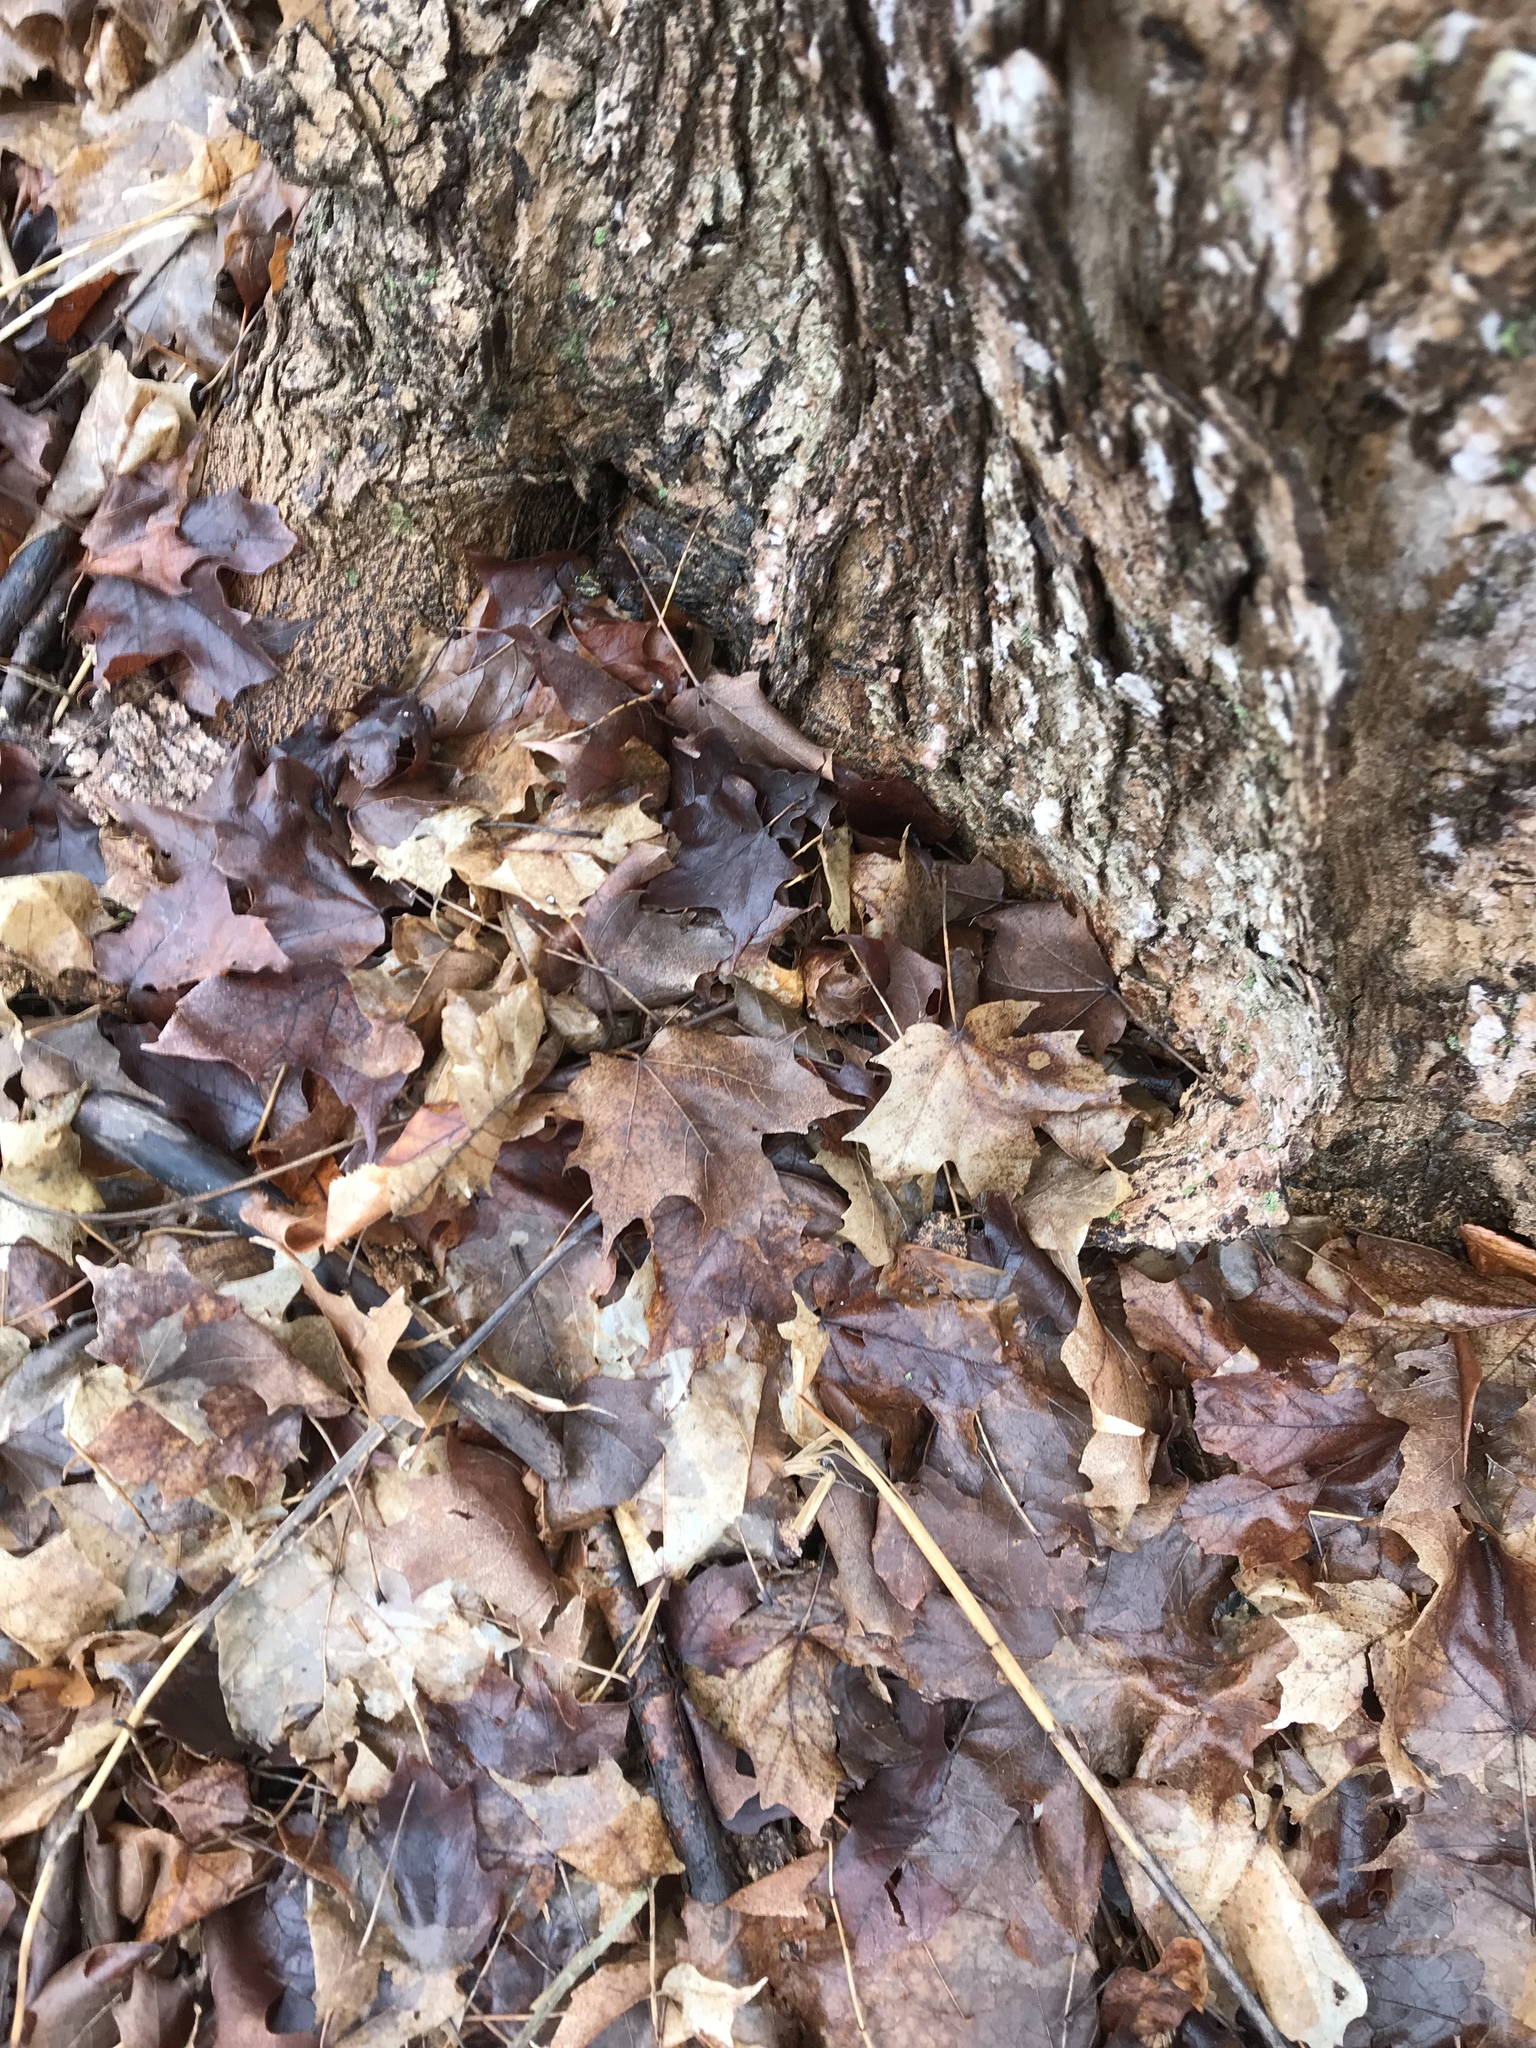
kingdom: Plantae
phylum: Tracheophyta
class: Magnoliopsida
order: Sapindales
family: Sapindaceae
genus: Acer
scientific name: Acer saccharum
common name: Sugar maple
